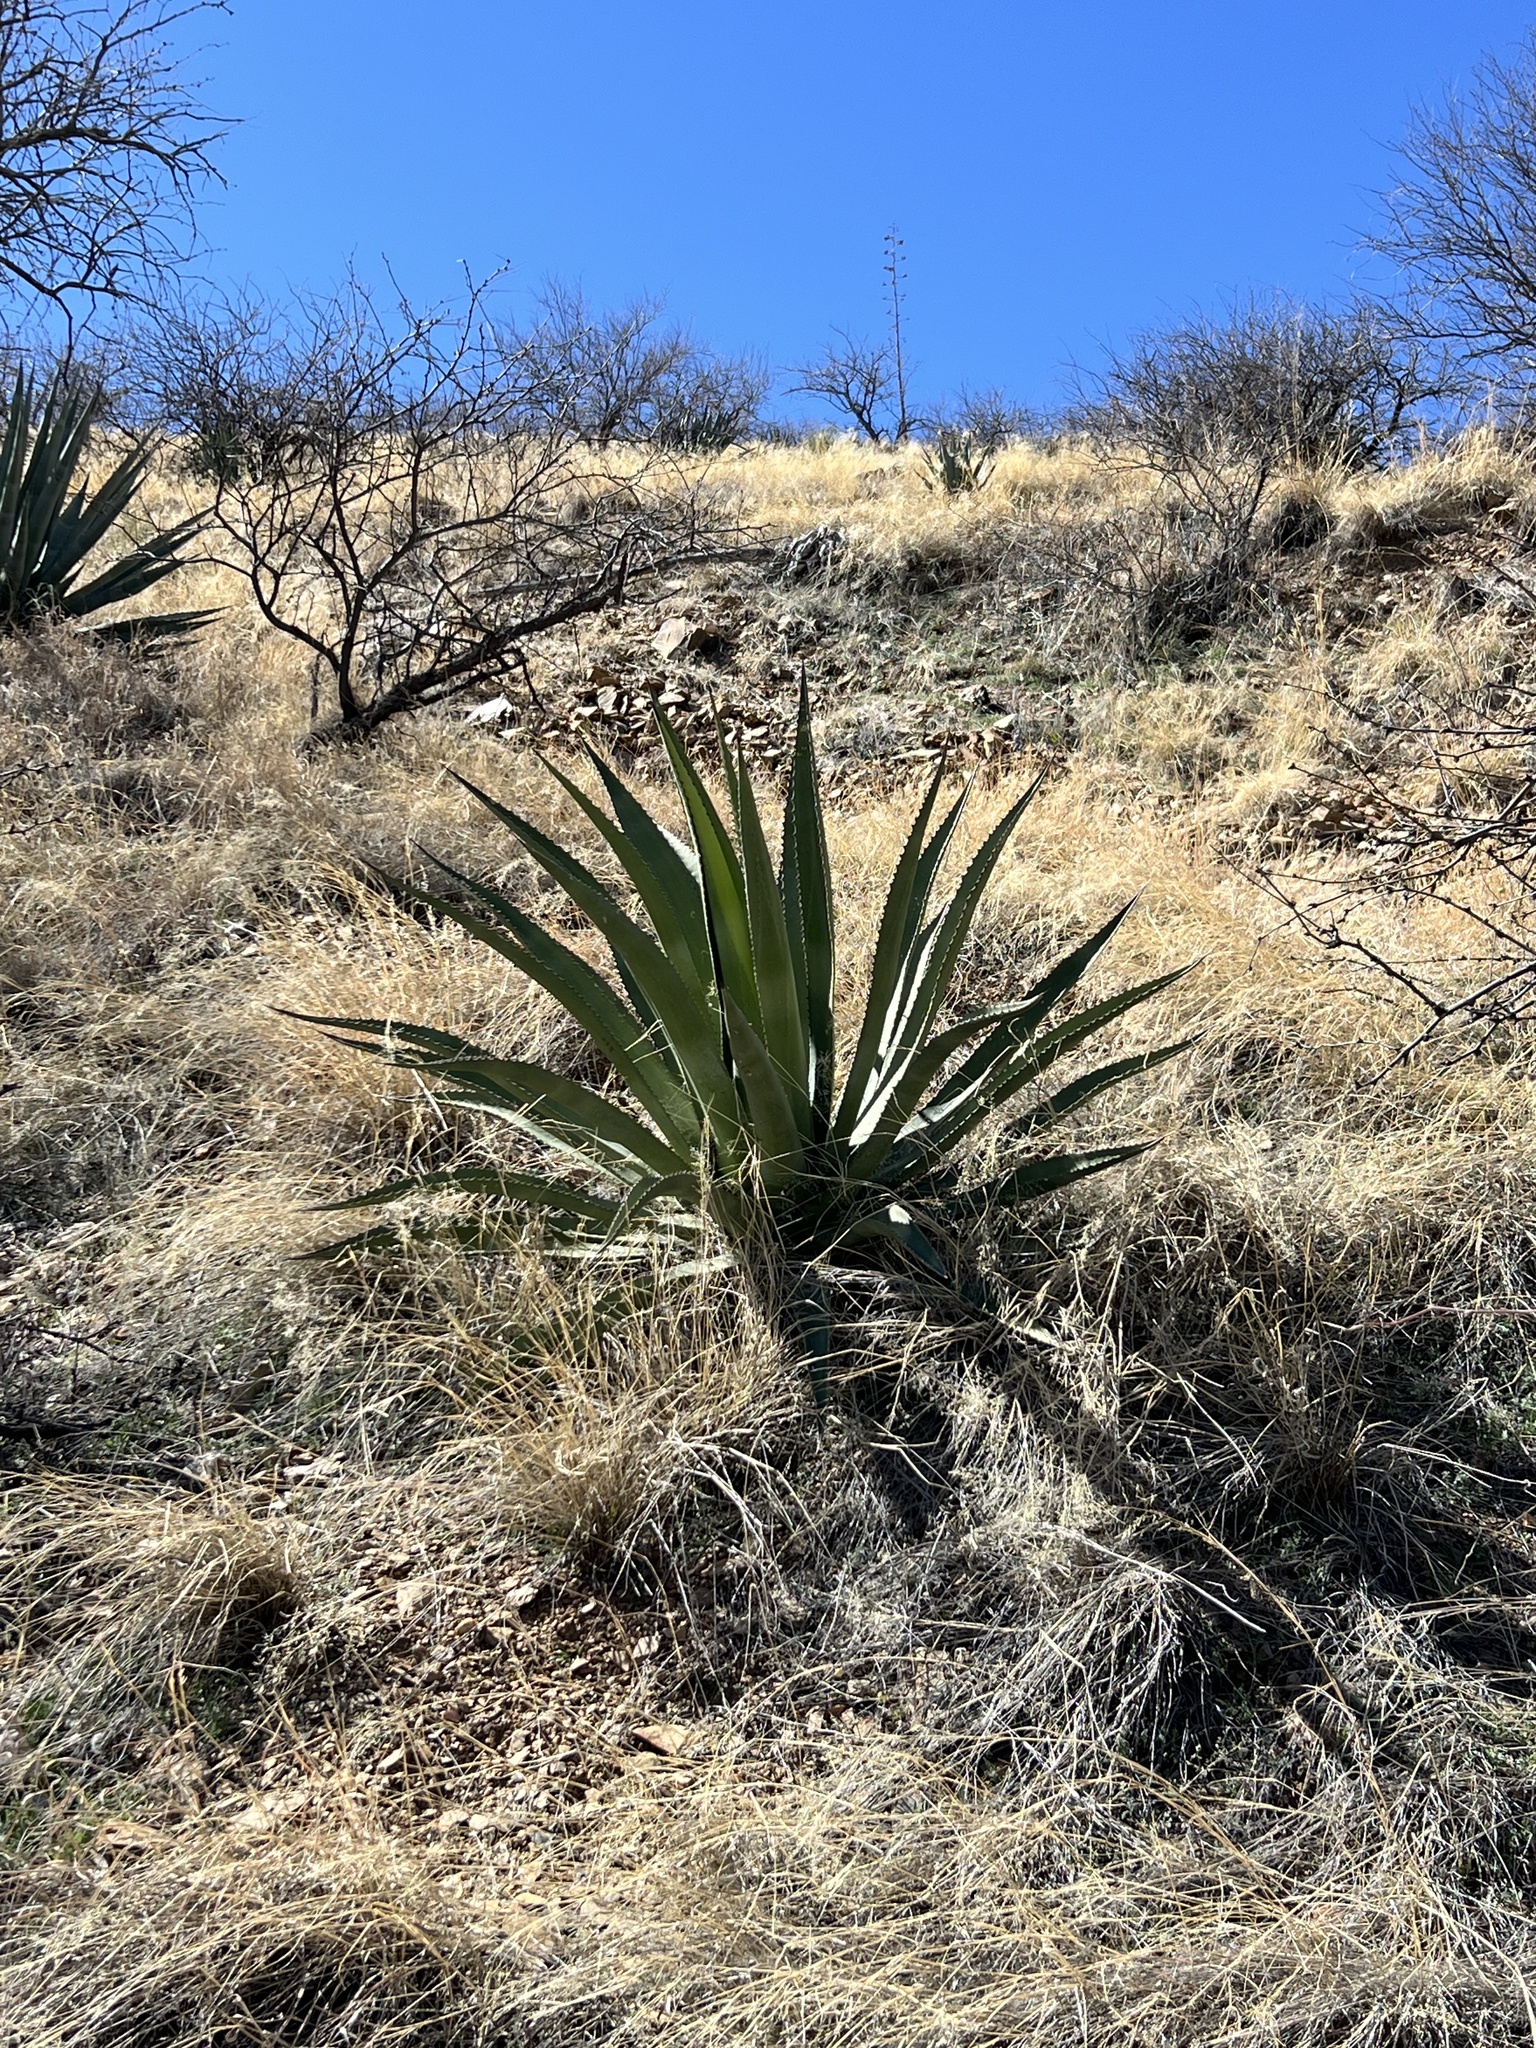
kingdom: Plantae
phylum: Tracheophyta
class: Liliopsida
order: Asparagales
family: Asparagaceae
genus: Agave
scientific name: Agave palmeri
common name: Palmer agave
